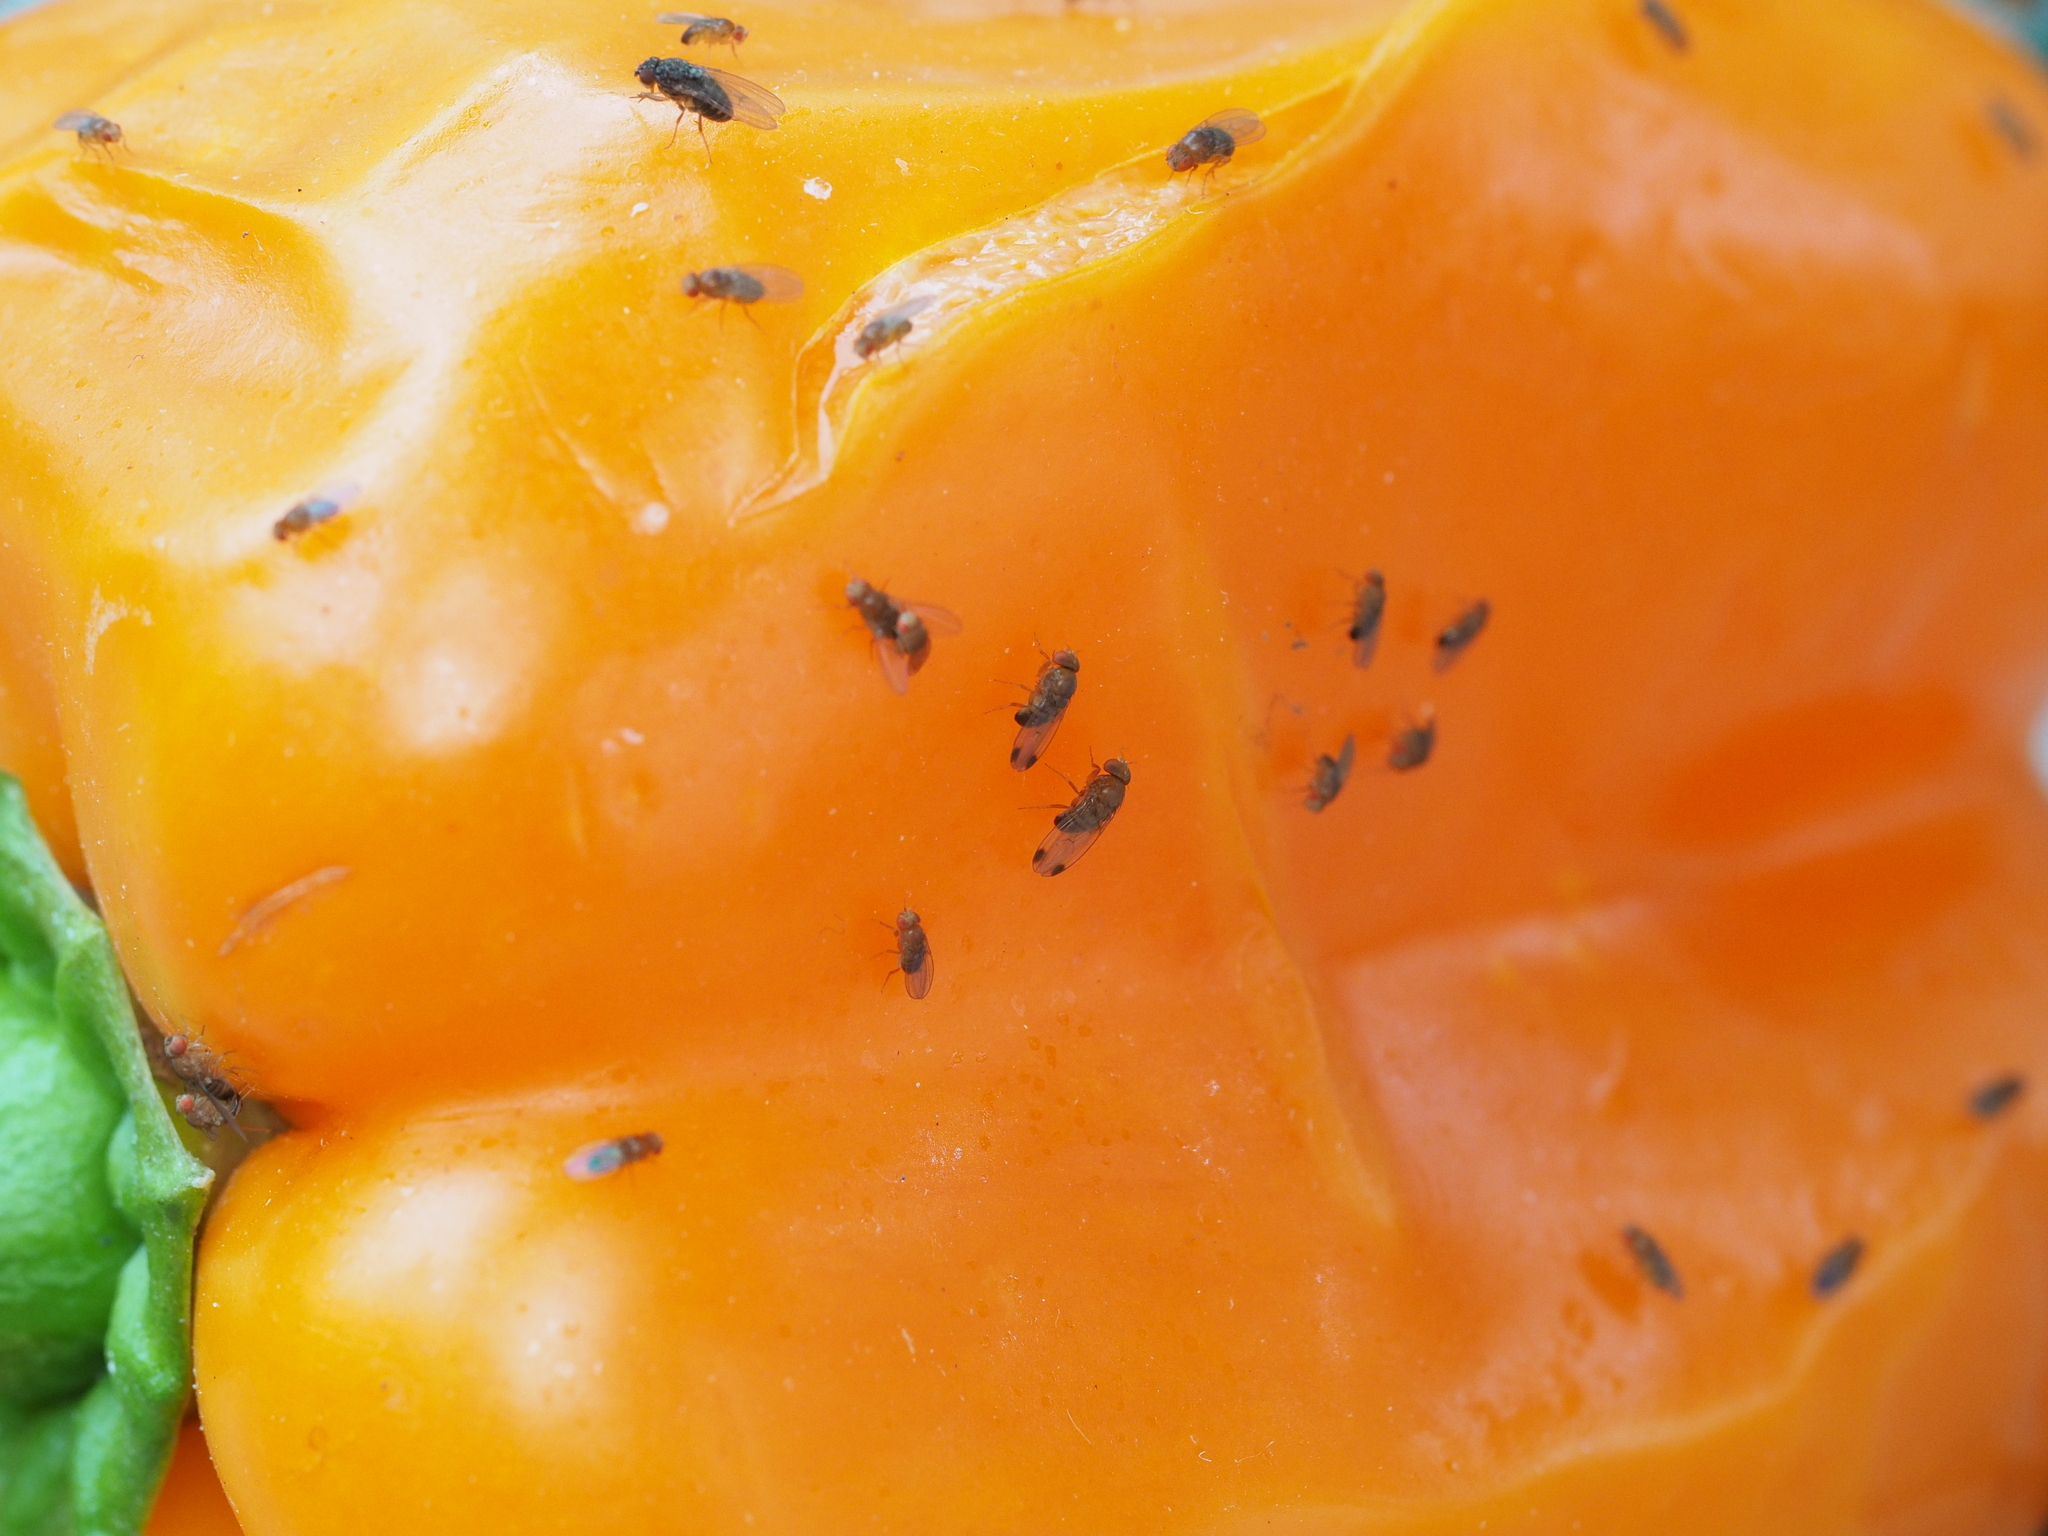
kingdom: Animalia
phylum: Arthropoda
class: Insecta
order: Diptera
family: Drosophilidae
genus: Drosophila
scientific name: Drosophila suzukii
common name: Spotted-wing drosophila
